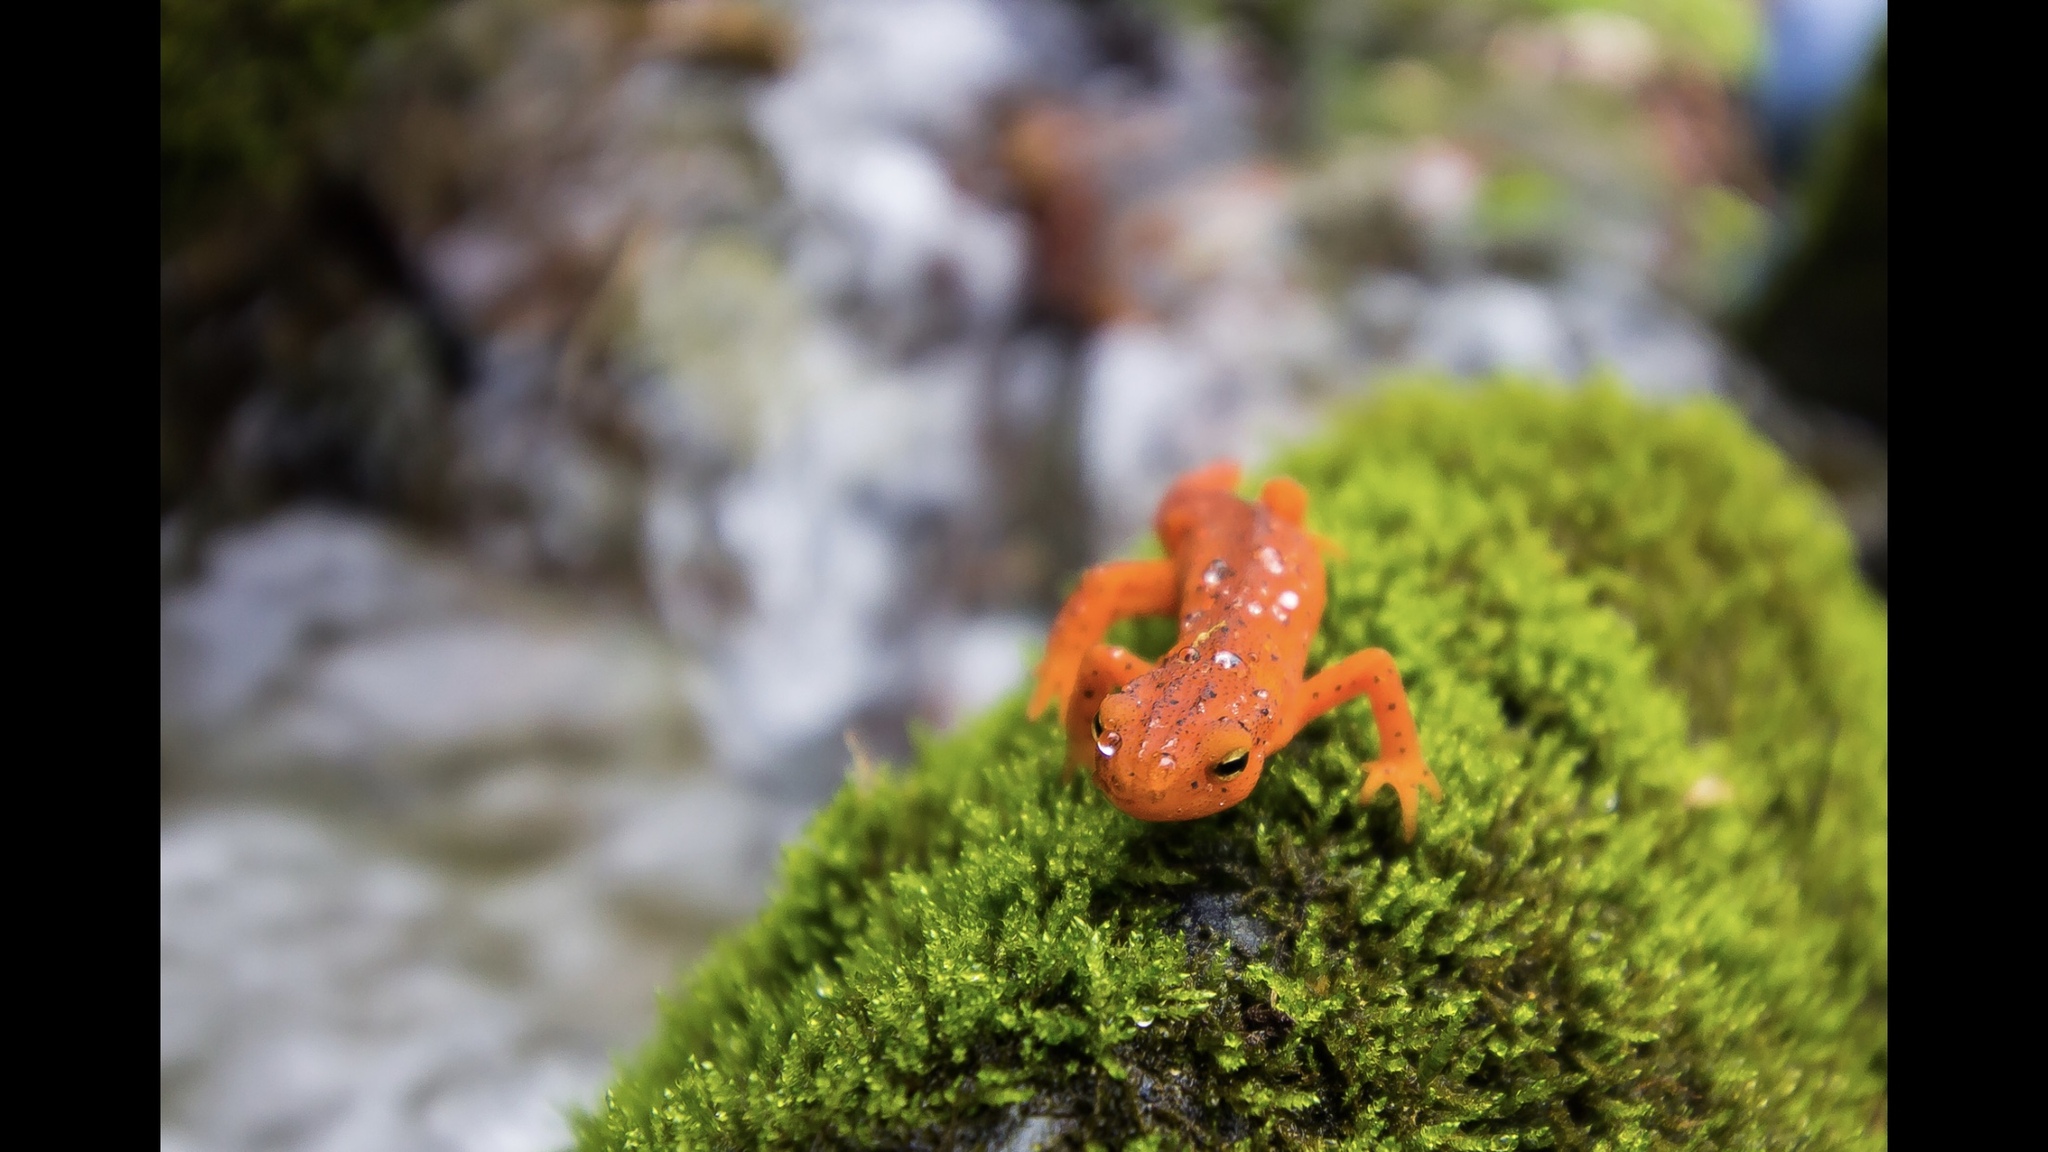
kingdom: Animalia
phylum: Chordata
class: Amphibia
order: Caudata
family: Salamandridae
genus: Notophthalmus
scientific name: Notophthalmus viridescens
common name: Eastern newt
